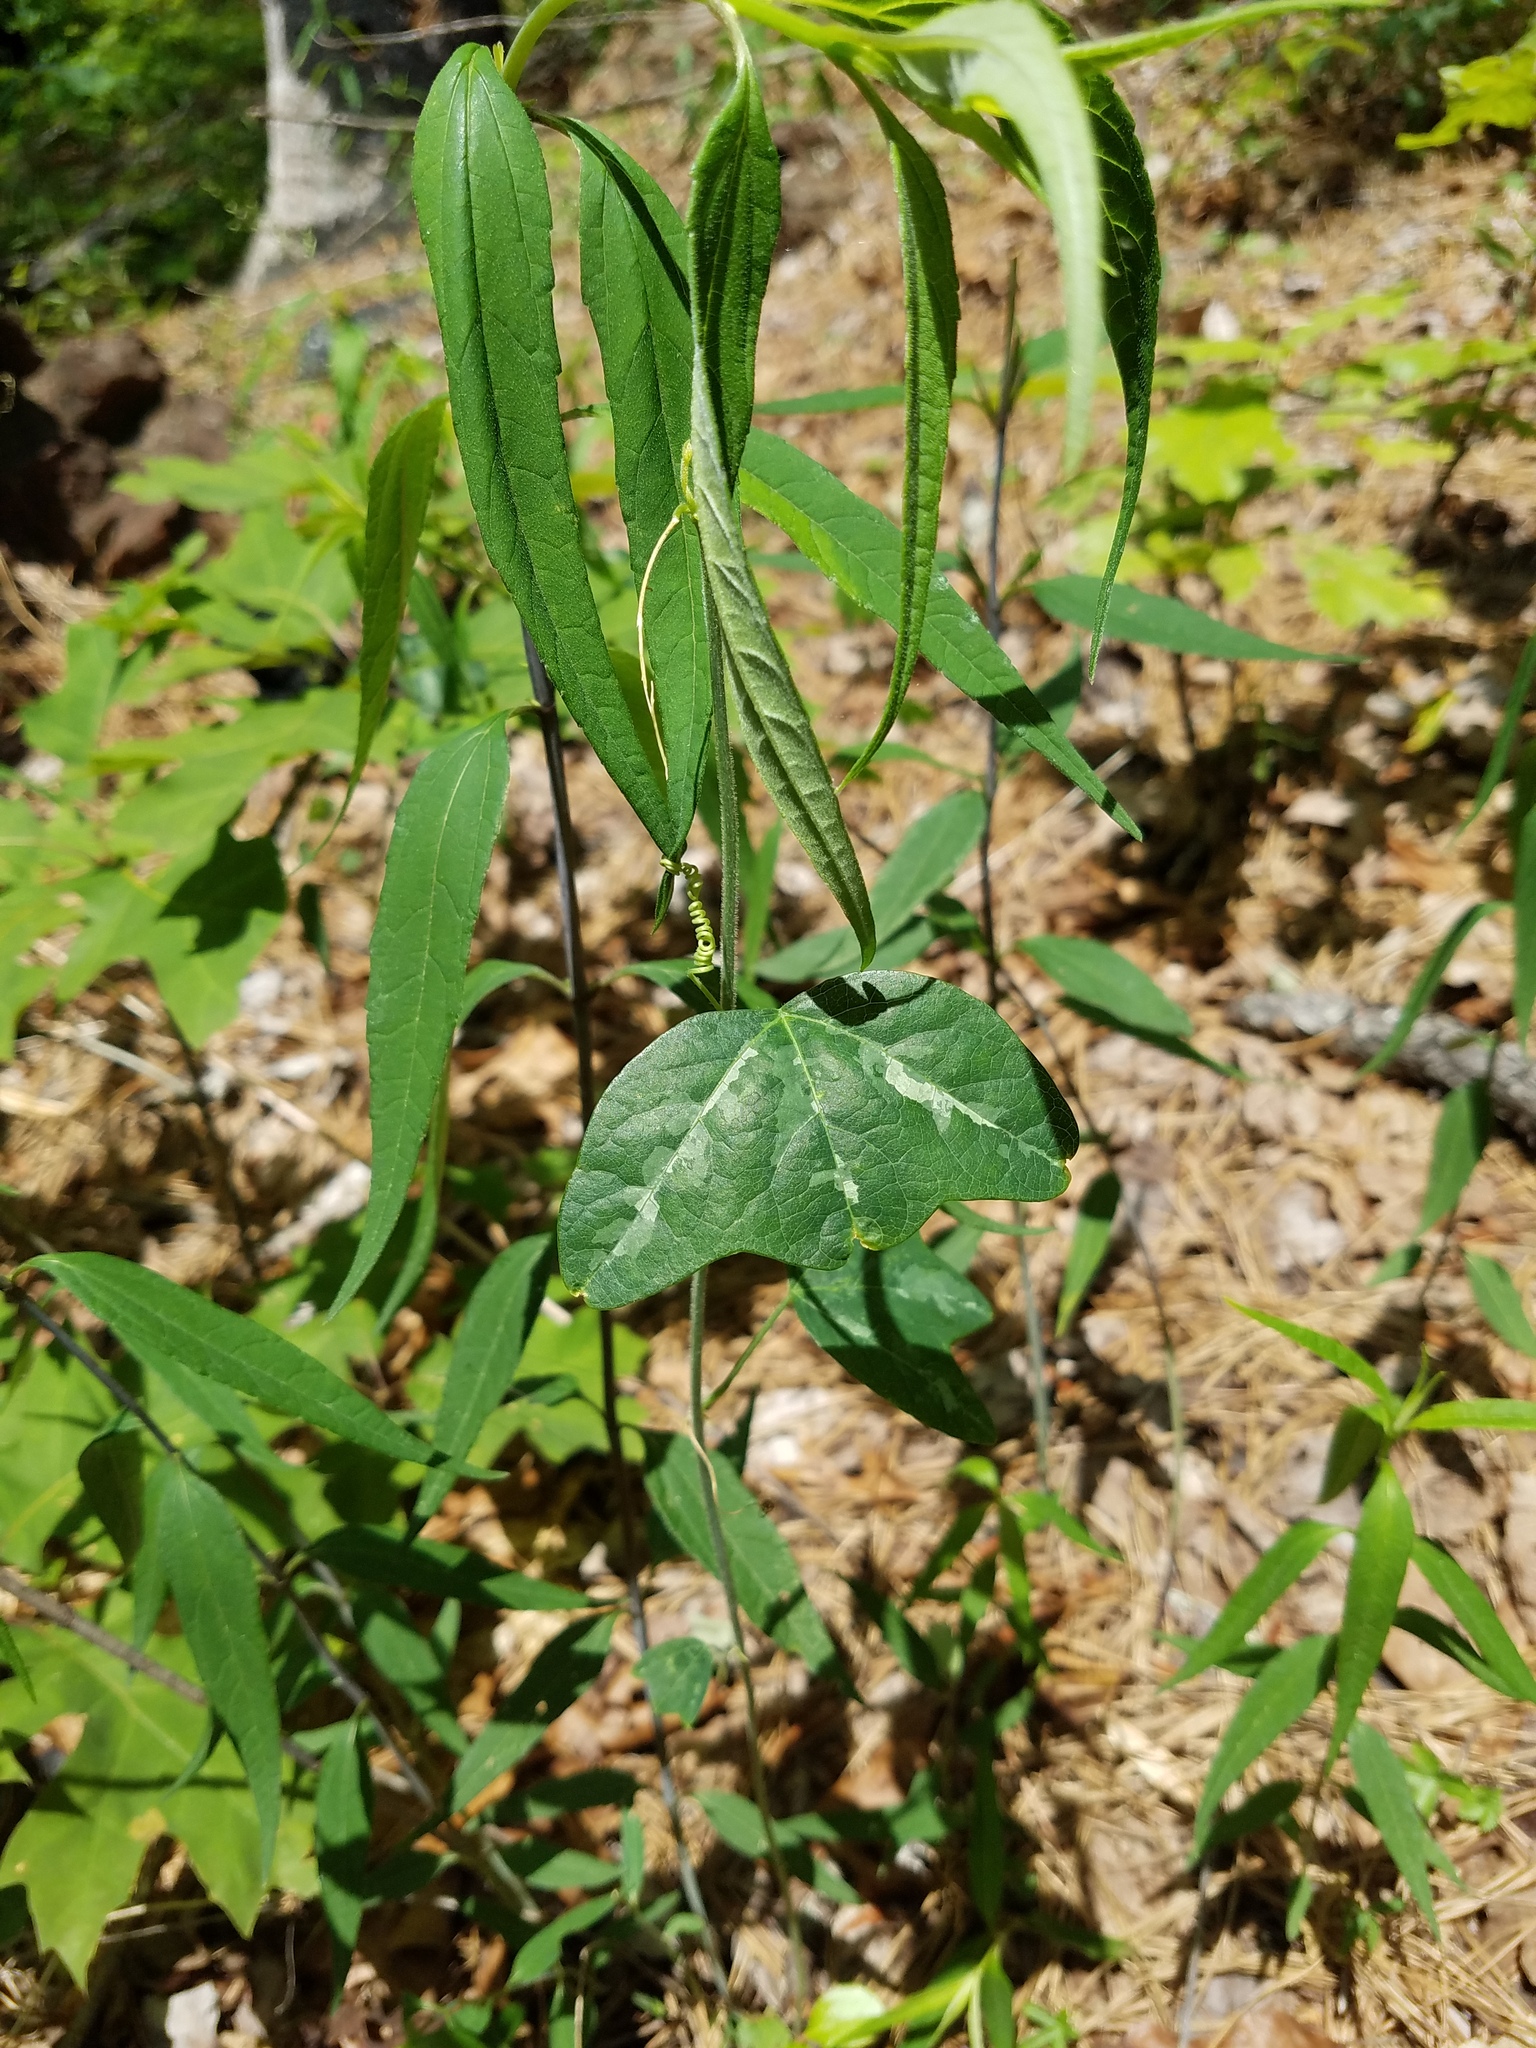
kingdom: Plantae
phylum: Tracheophyta
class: Magnoliopsida
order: Malpighiales
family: Passifloraceae
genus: Passiflora
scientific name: Passiflora lutea
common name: Yellow passionflower
